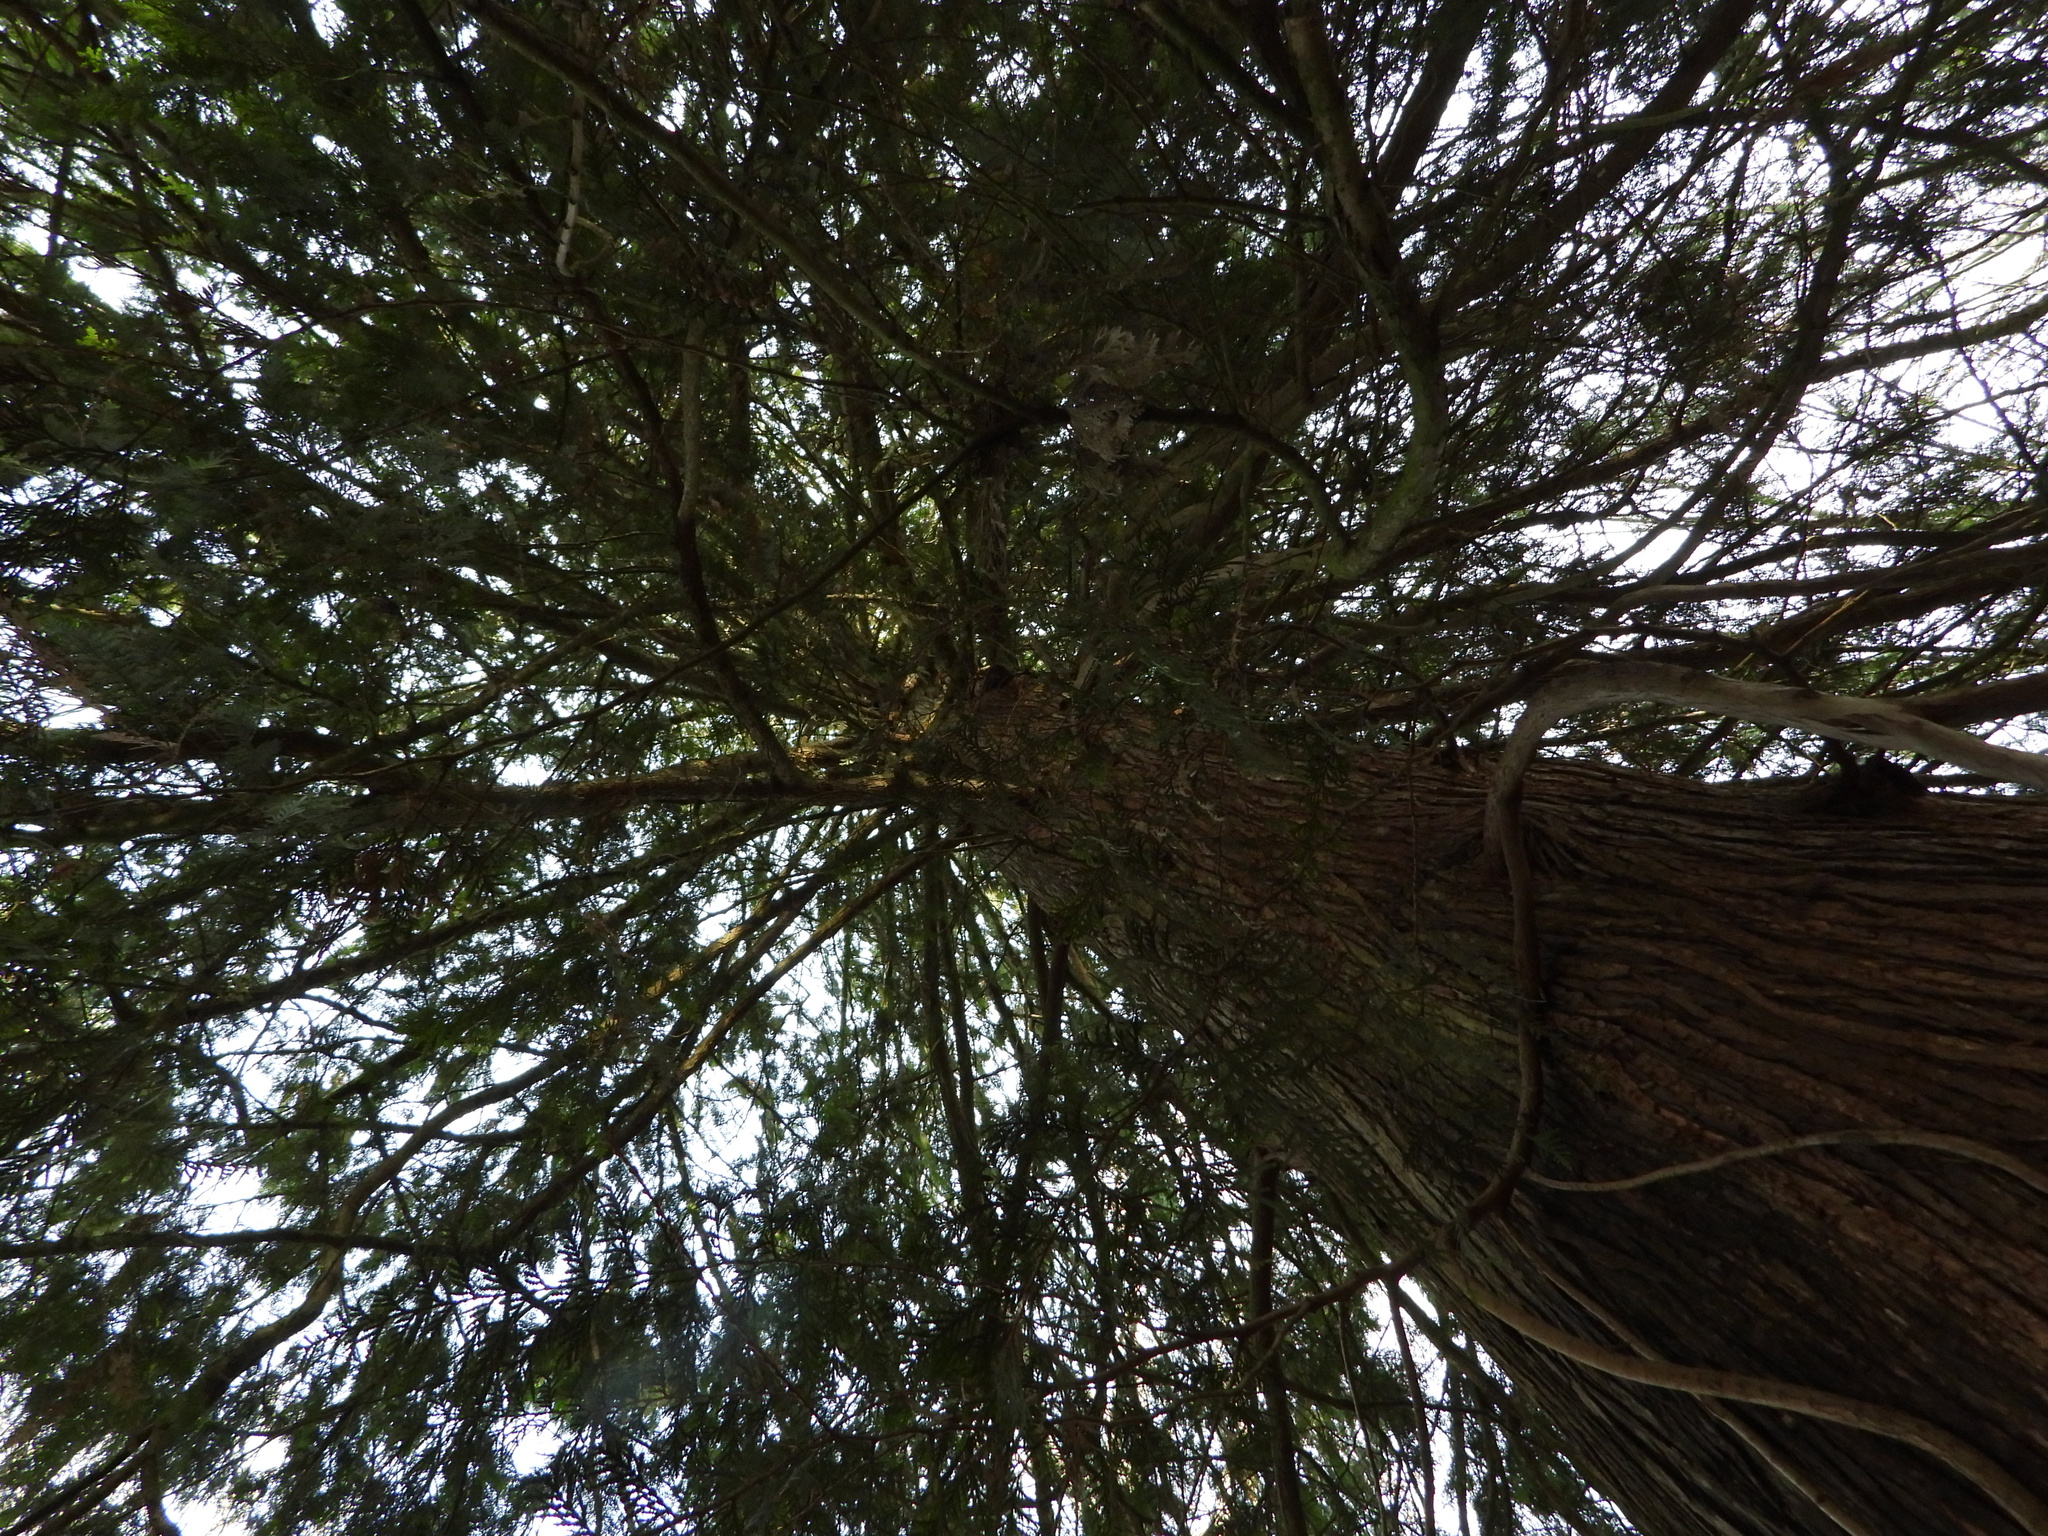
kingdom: Plantae
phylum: Tracheophyta
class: Pinopsida
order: Pinales
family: Cupressaceae
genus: Thuja
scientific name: Thuja plicata
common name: Western red-cedar
